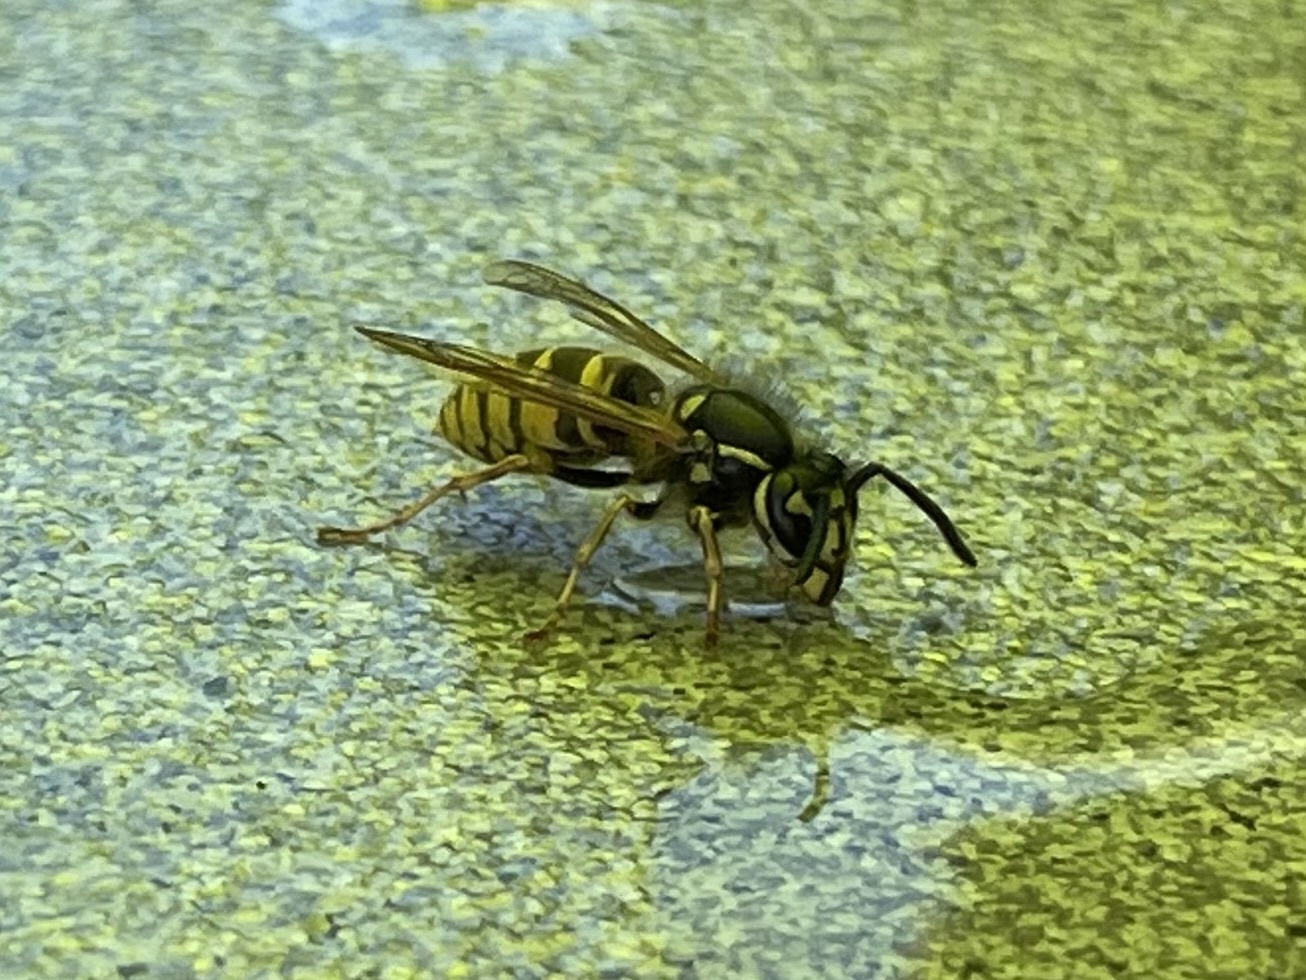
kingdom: Animalia
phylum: Arthropoda
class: Insecta
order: Hymenoptera
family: Vespidae
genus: Vespula
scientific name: Vespula vulgaris
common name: Common wasp
